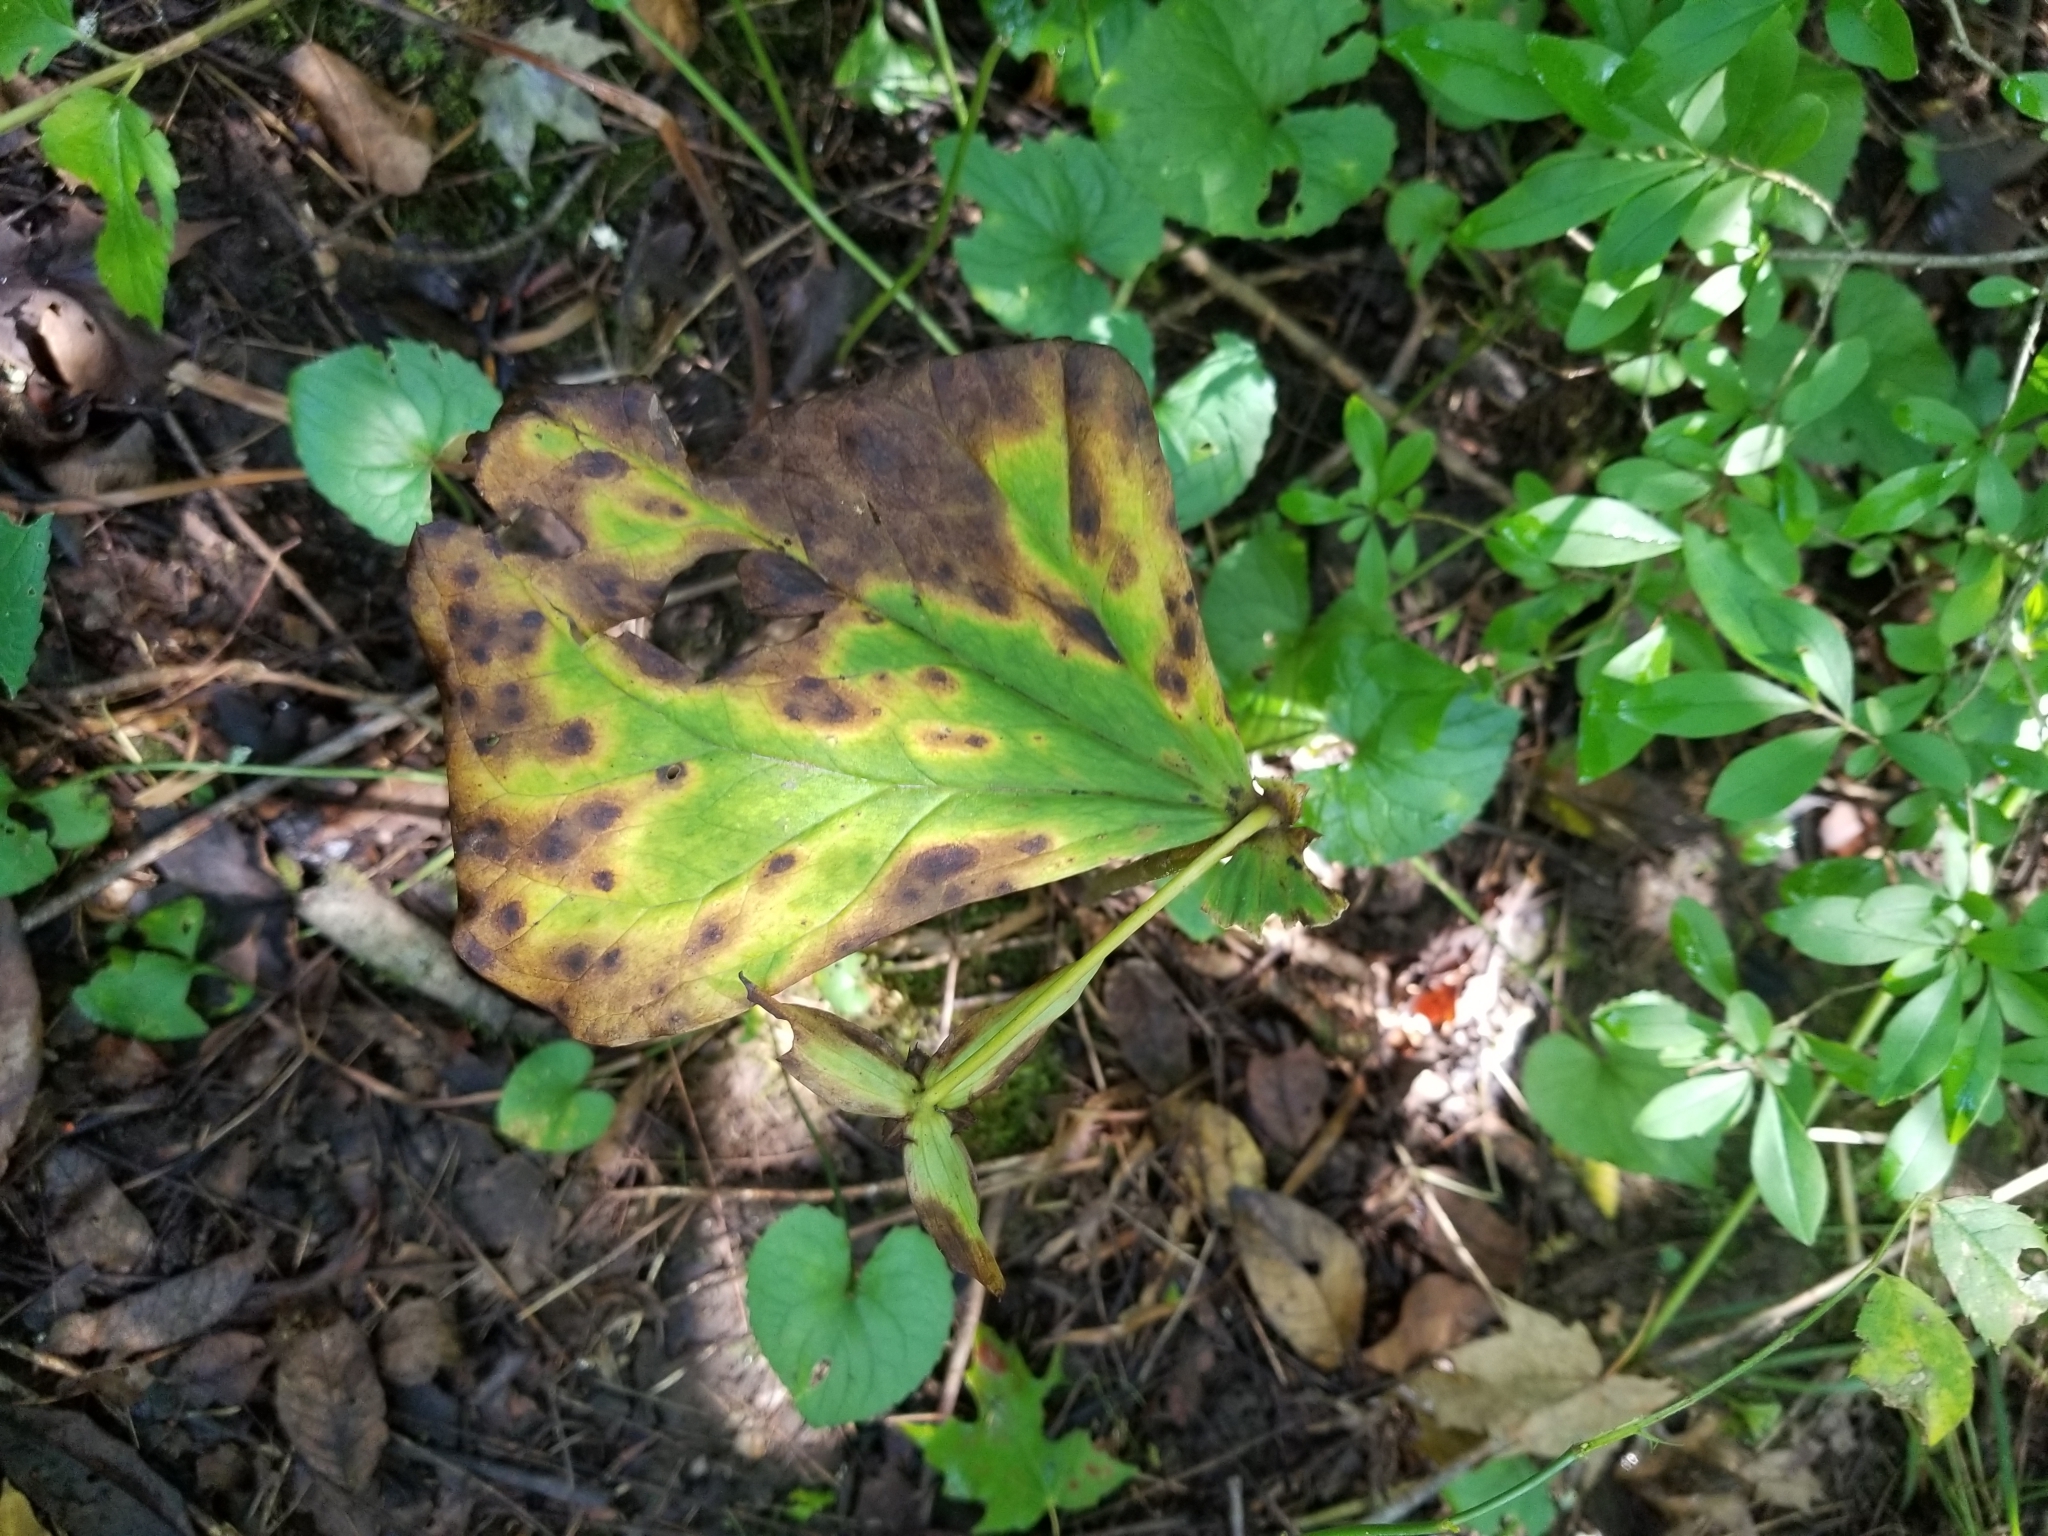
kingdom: Plantae
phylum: Tracheophyta
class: Liliopsida
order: Liliales
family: Melanthiaceae
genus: Trillium
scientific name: Trillium erectum
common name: Purple trillium
